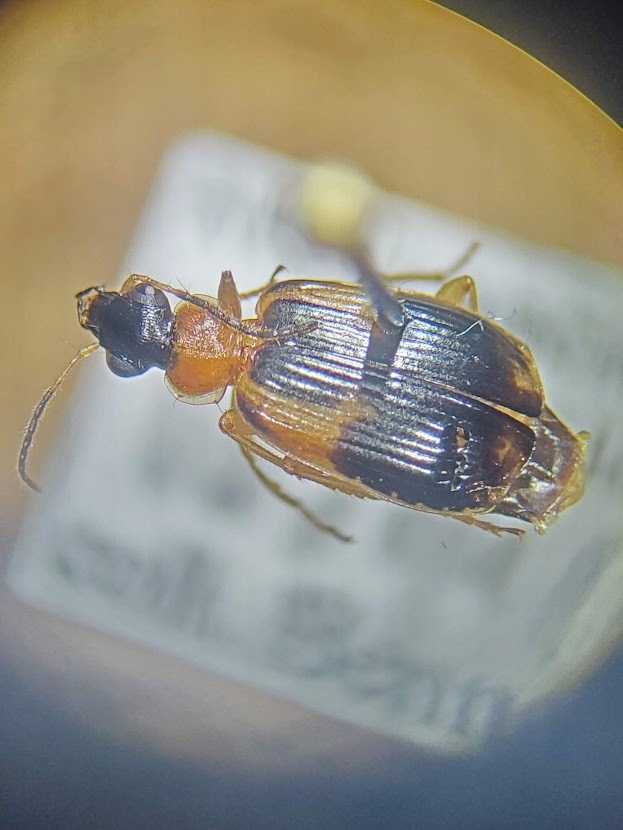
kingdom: Animalia
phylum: Arthropoda
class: Insecta
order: Coleoptera
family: Carabidae
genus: Lebia
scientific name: Lebia analis
